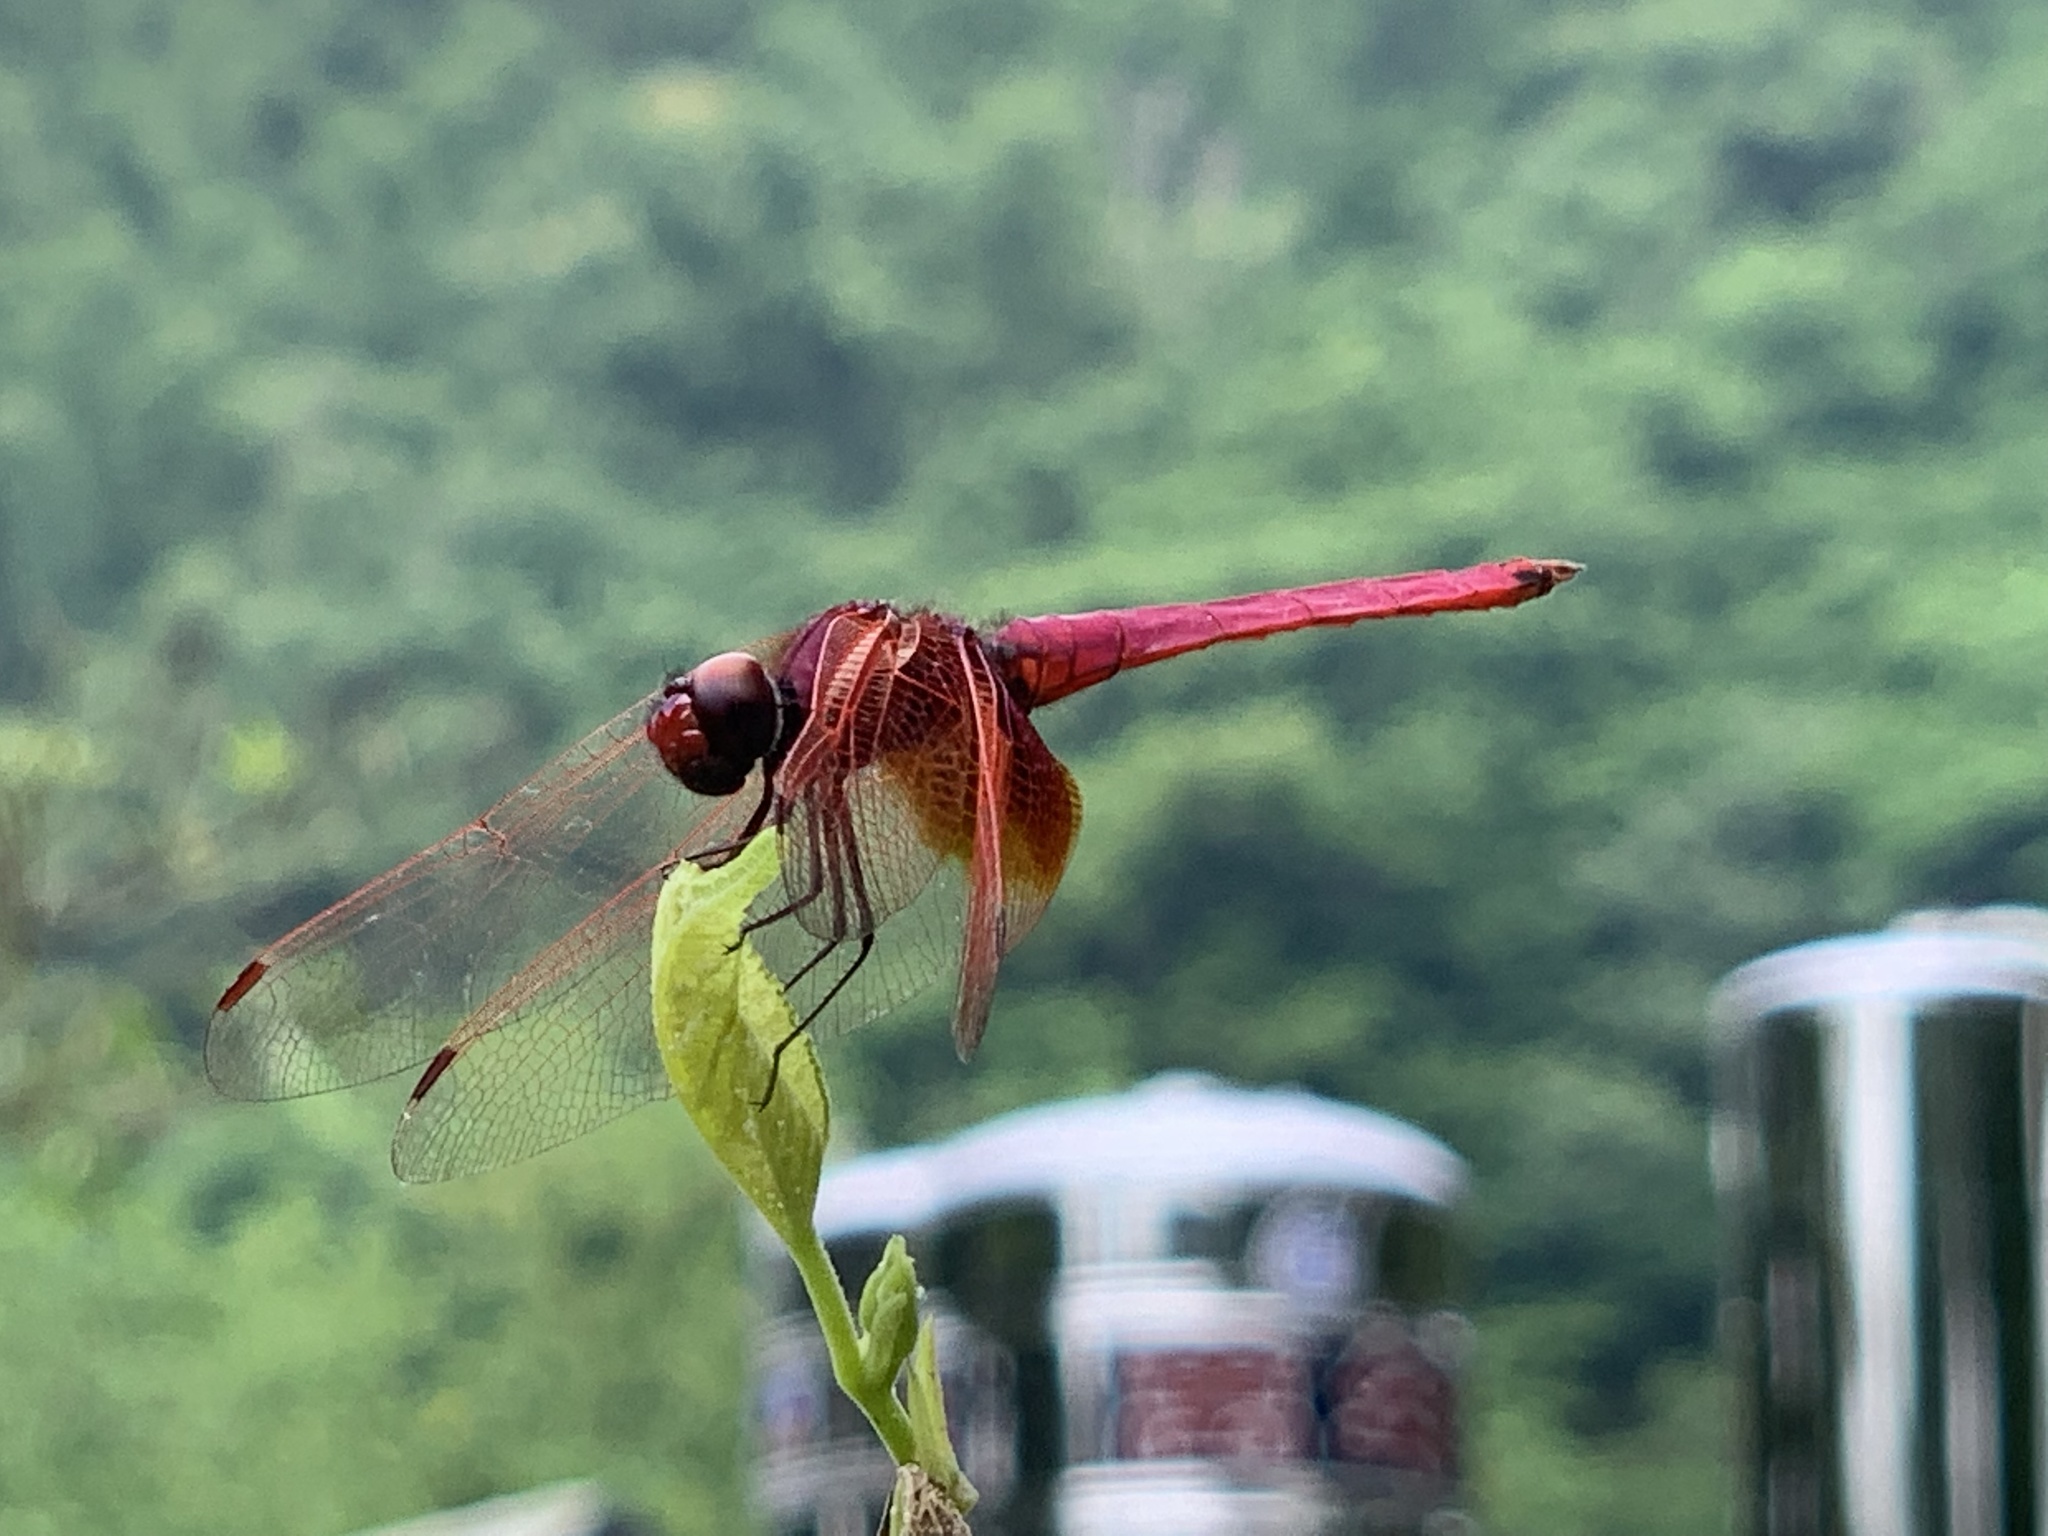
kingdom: Animalia
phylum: Arthropoda
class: Insecta
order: Odonata
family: Libellulidae
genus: Trithemis
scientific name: Trithemis aurora
